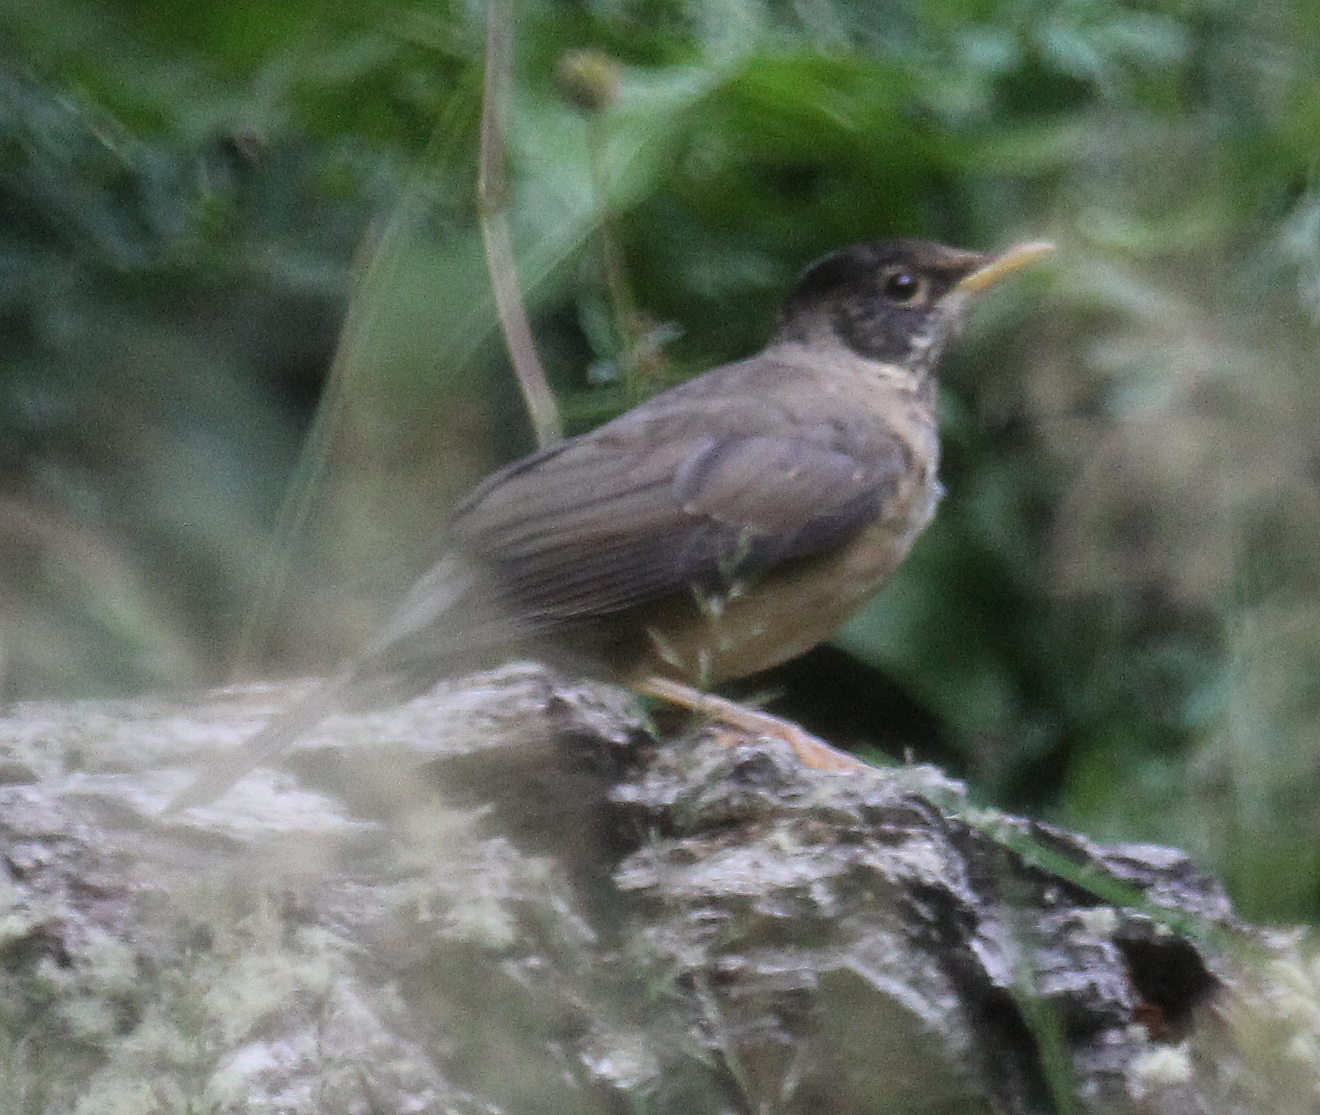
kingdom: Animalia
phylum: Chordata
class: Aves
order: Passeriformes
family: Turdidae
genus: Turdus
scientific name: Turdus falcklandii
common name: Austral thrush
